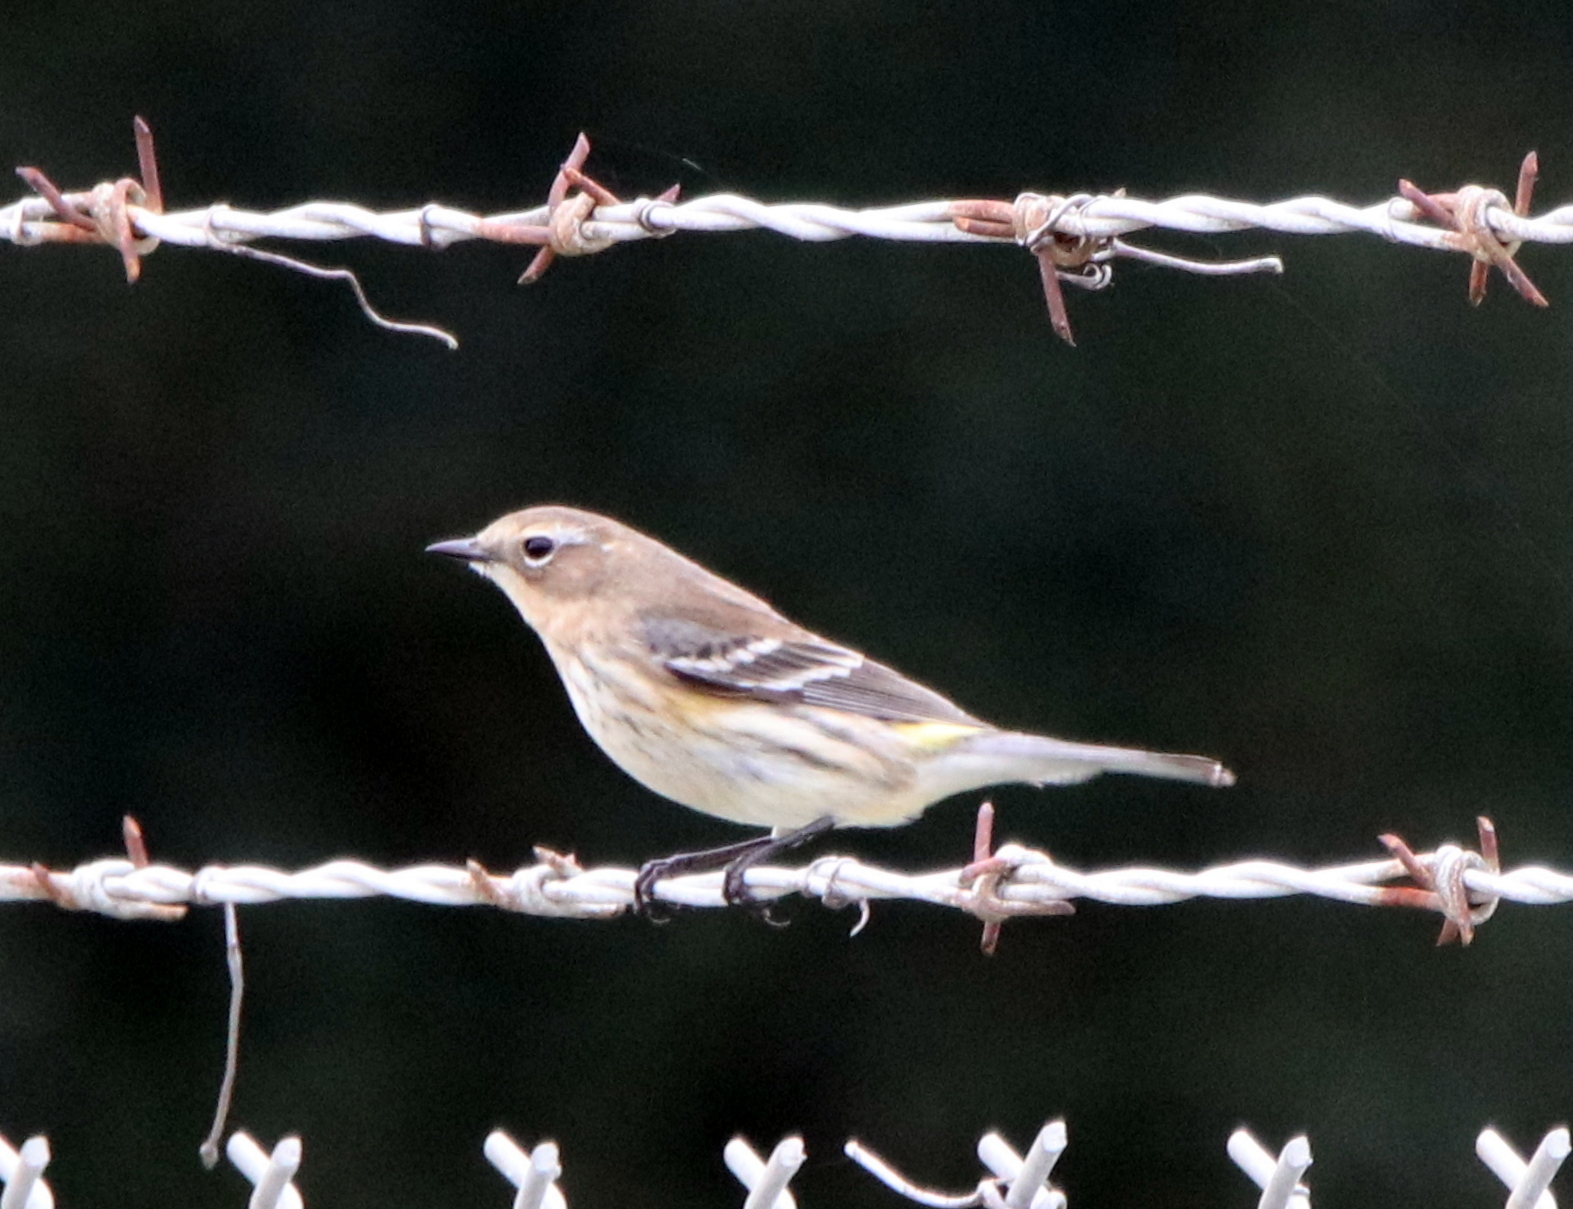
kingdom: Animalia
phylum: Chordata
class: Aves
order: Passeriformes
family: Parulidae
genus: Setophaga
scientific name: Setophaga coronata
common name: Myrtle warbler
